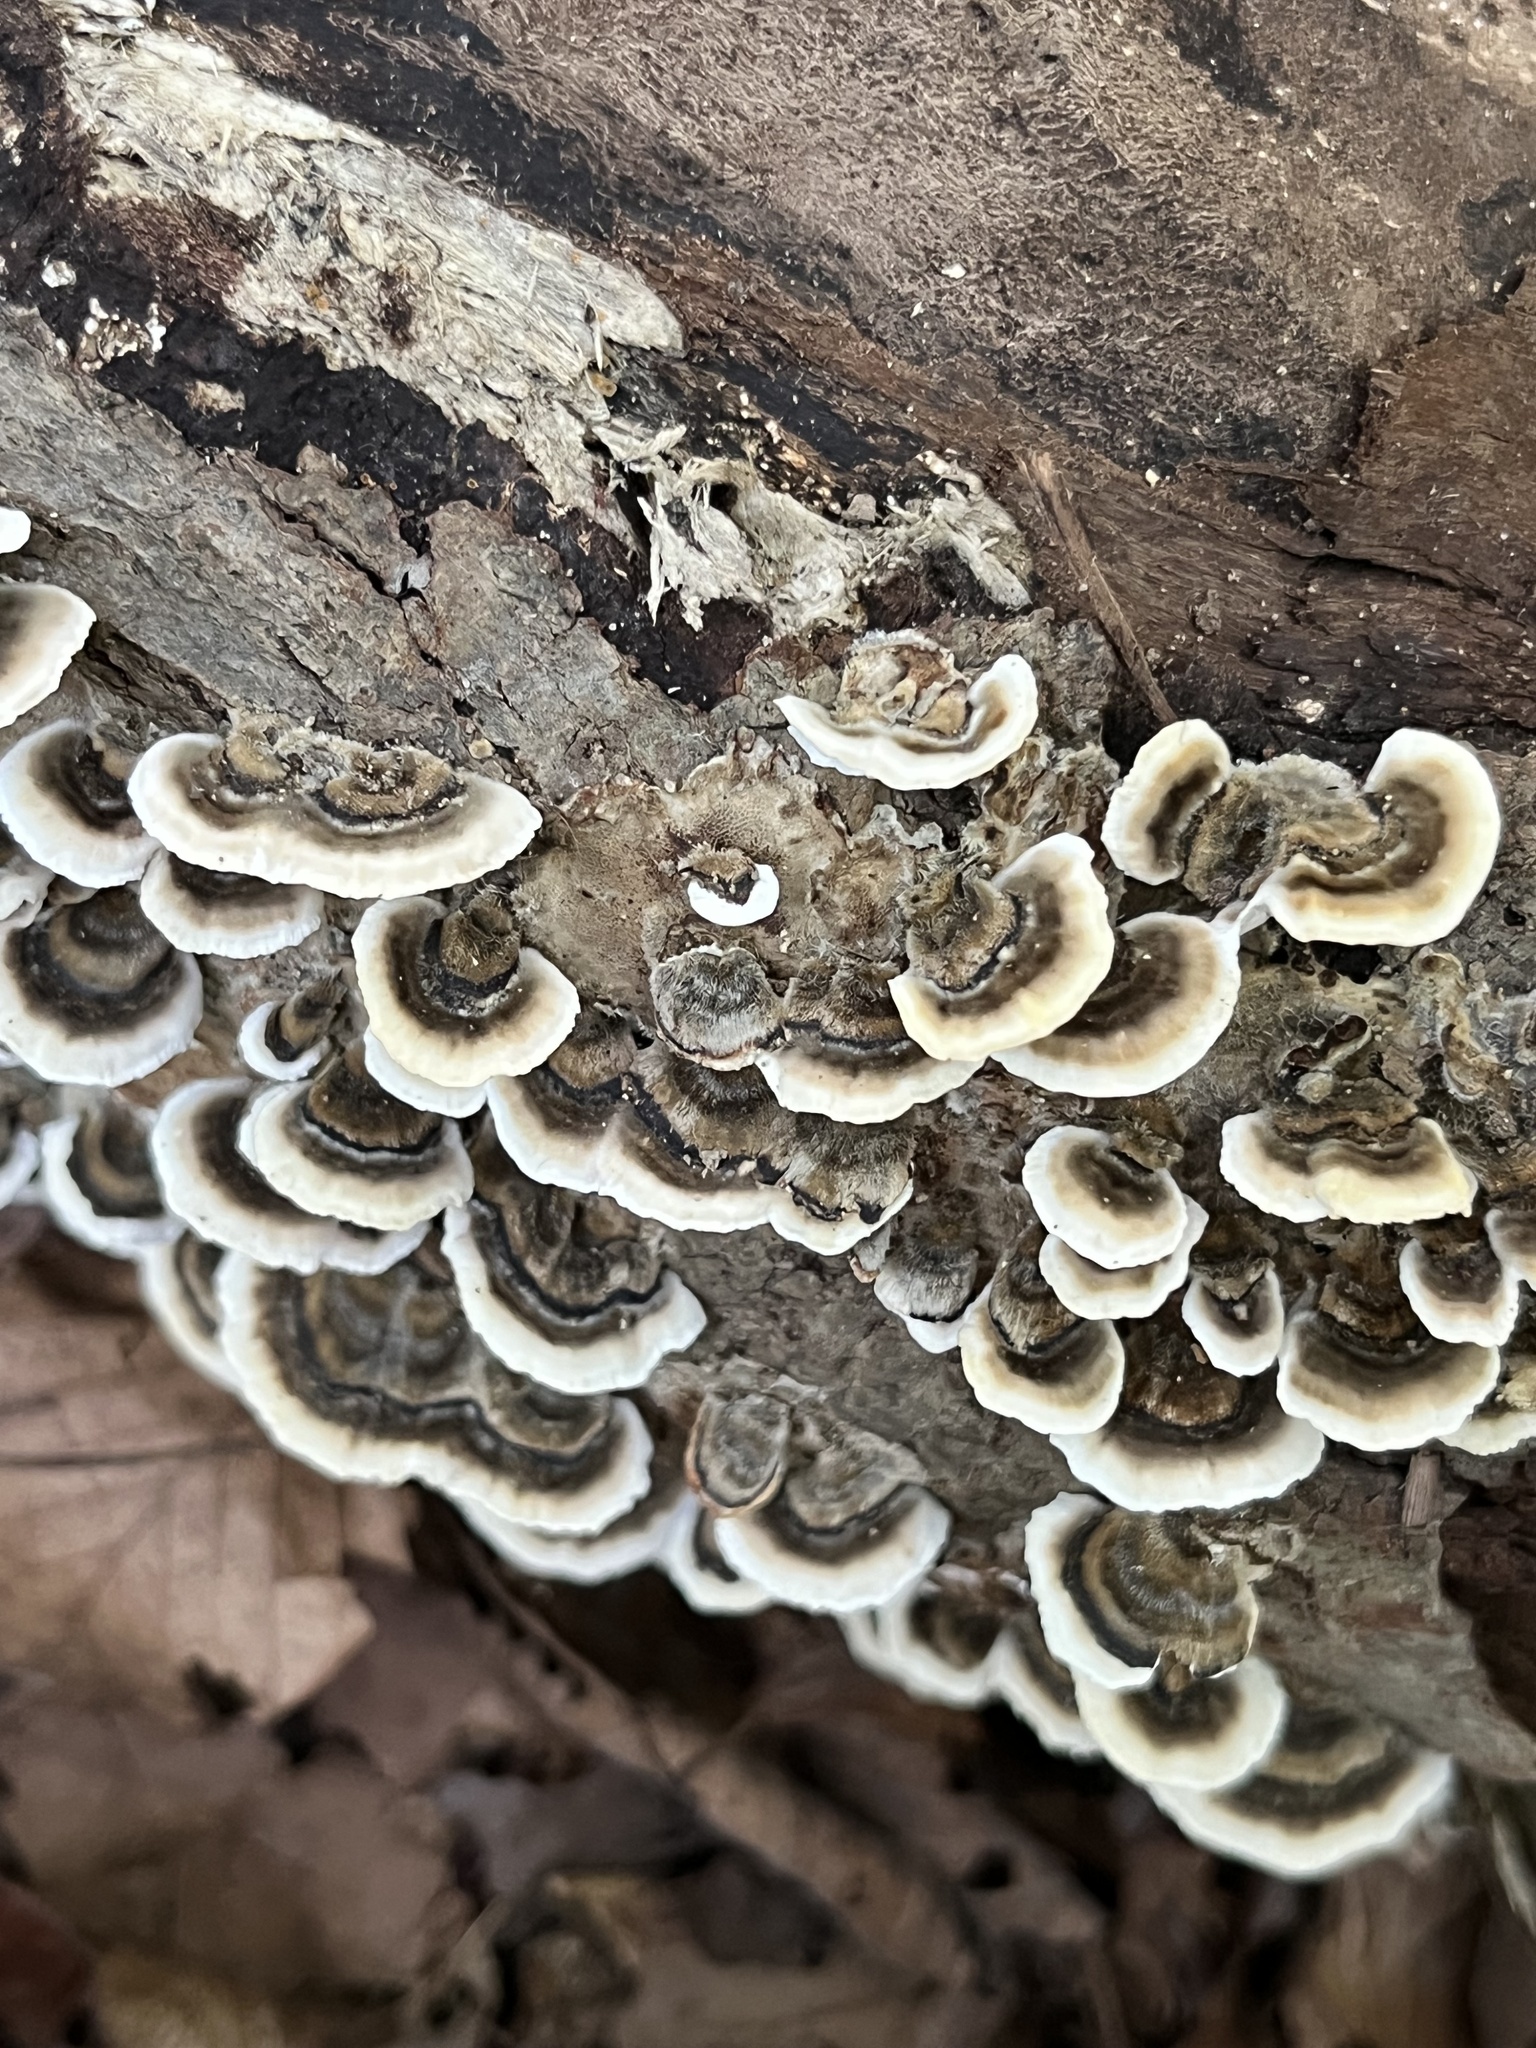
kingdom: Fungi
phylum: Basidiomycota
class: Agaricomycetes
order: Polyporales
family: Polyporaceae
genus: Trametes
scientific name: Trametes versicolor
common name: Turkeytail
